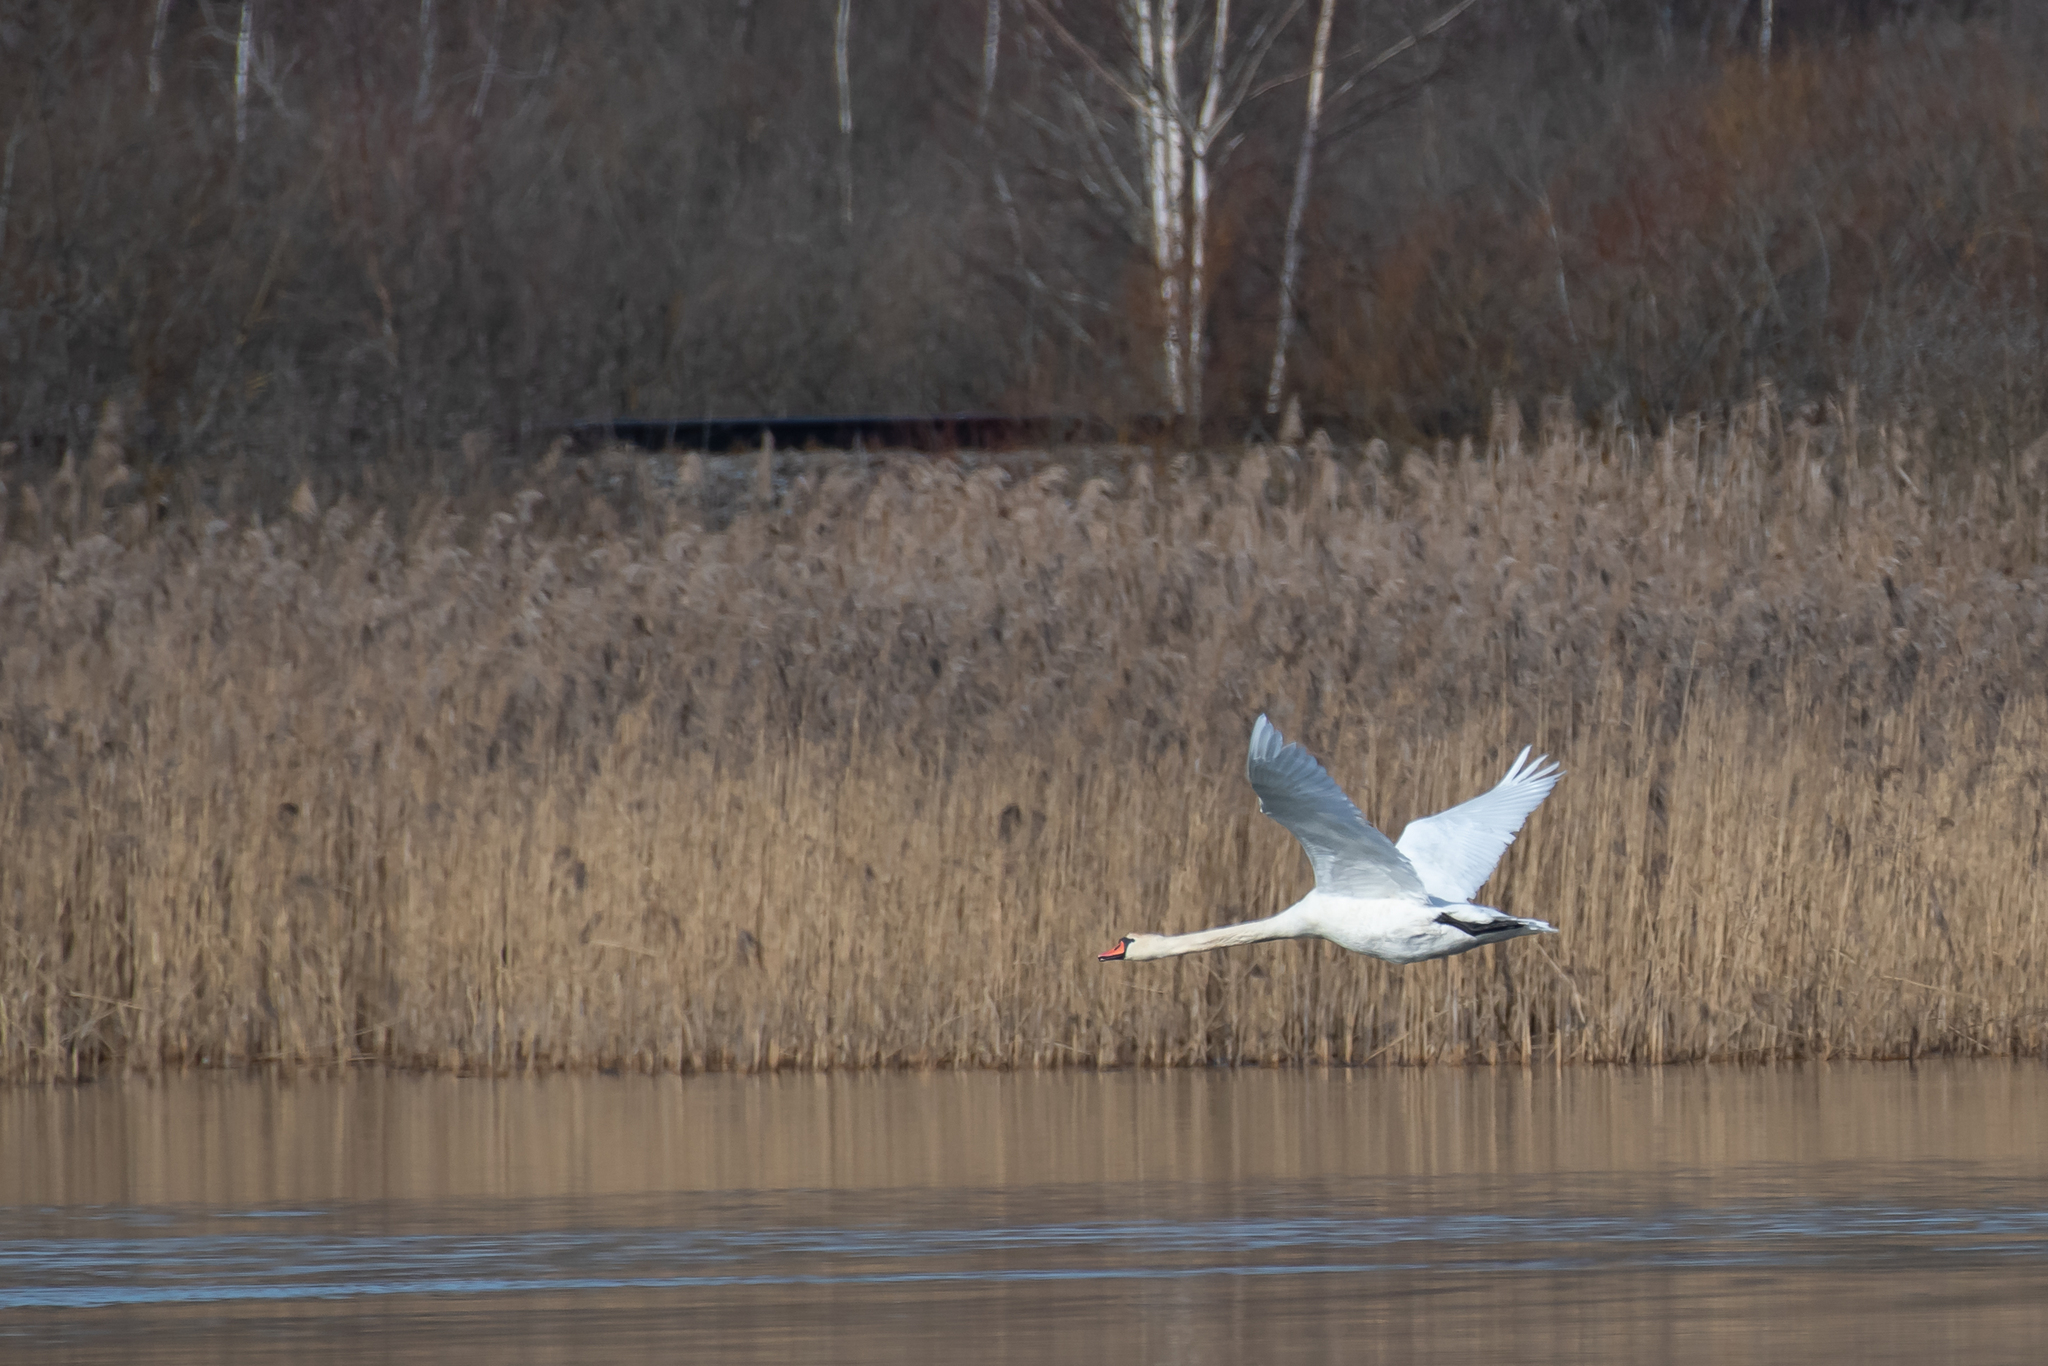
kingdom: Animalia
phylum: Chordata
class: Aves
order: Anseriformes
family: Anatidae
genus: Cygnus
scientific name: Cygnus olor
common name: Mute swan
